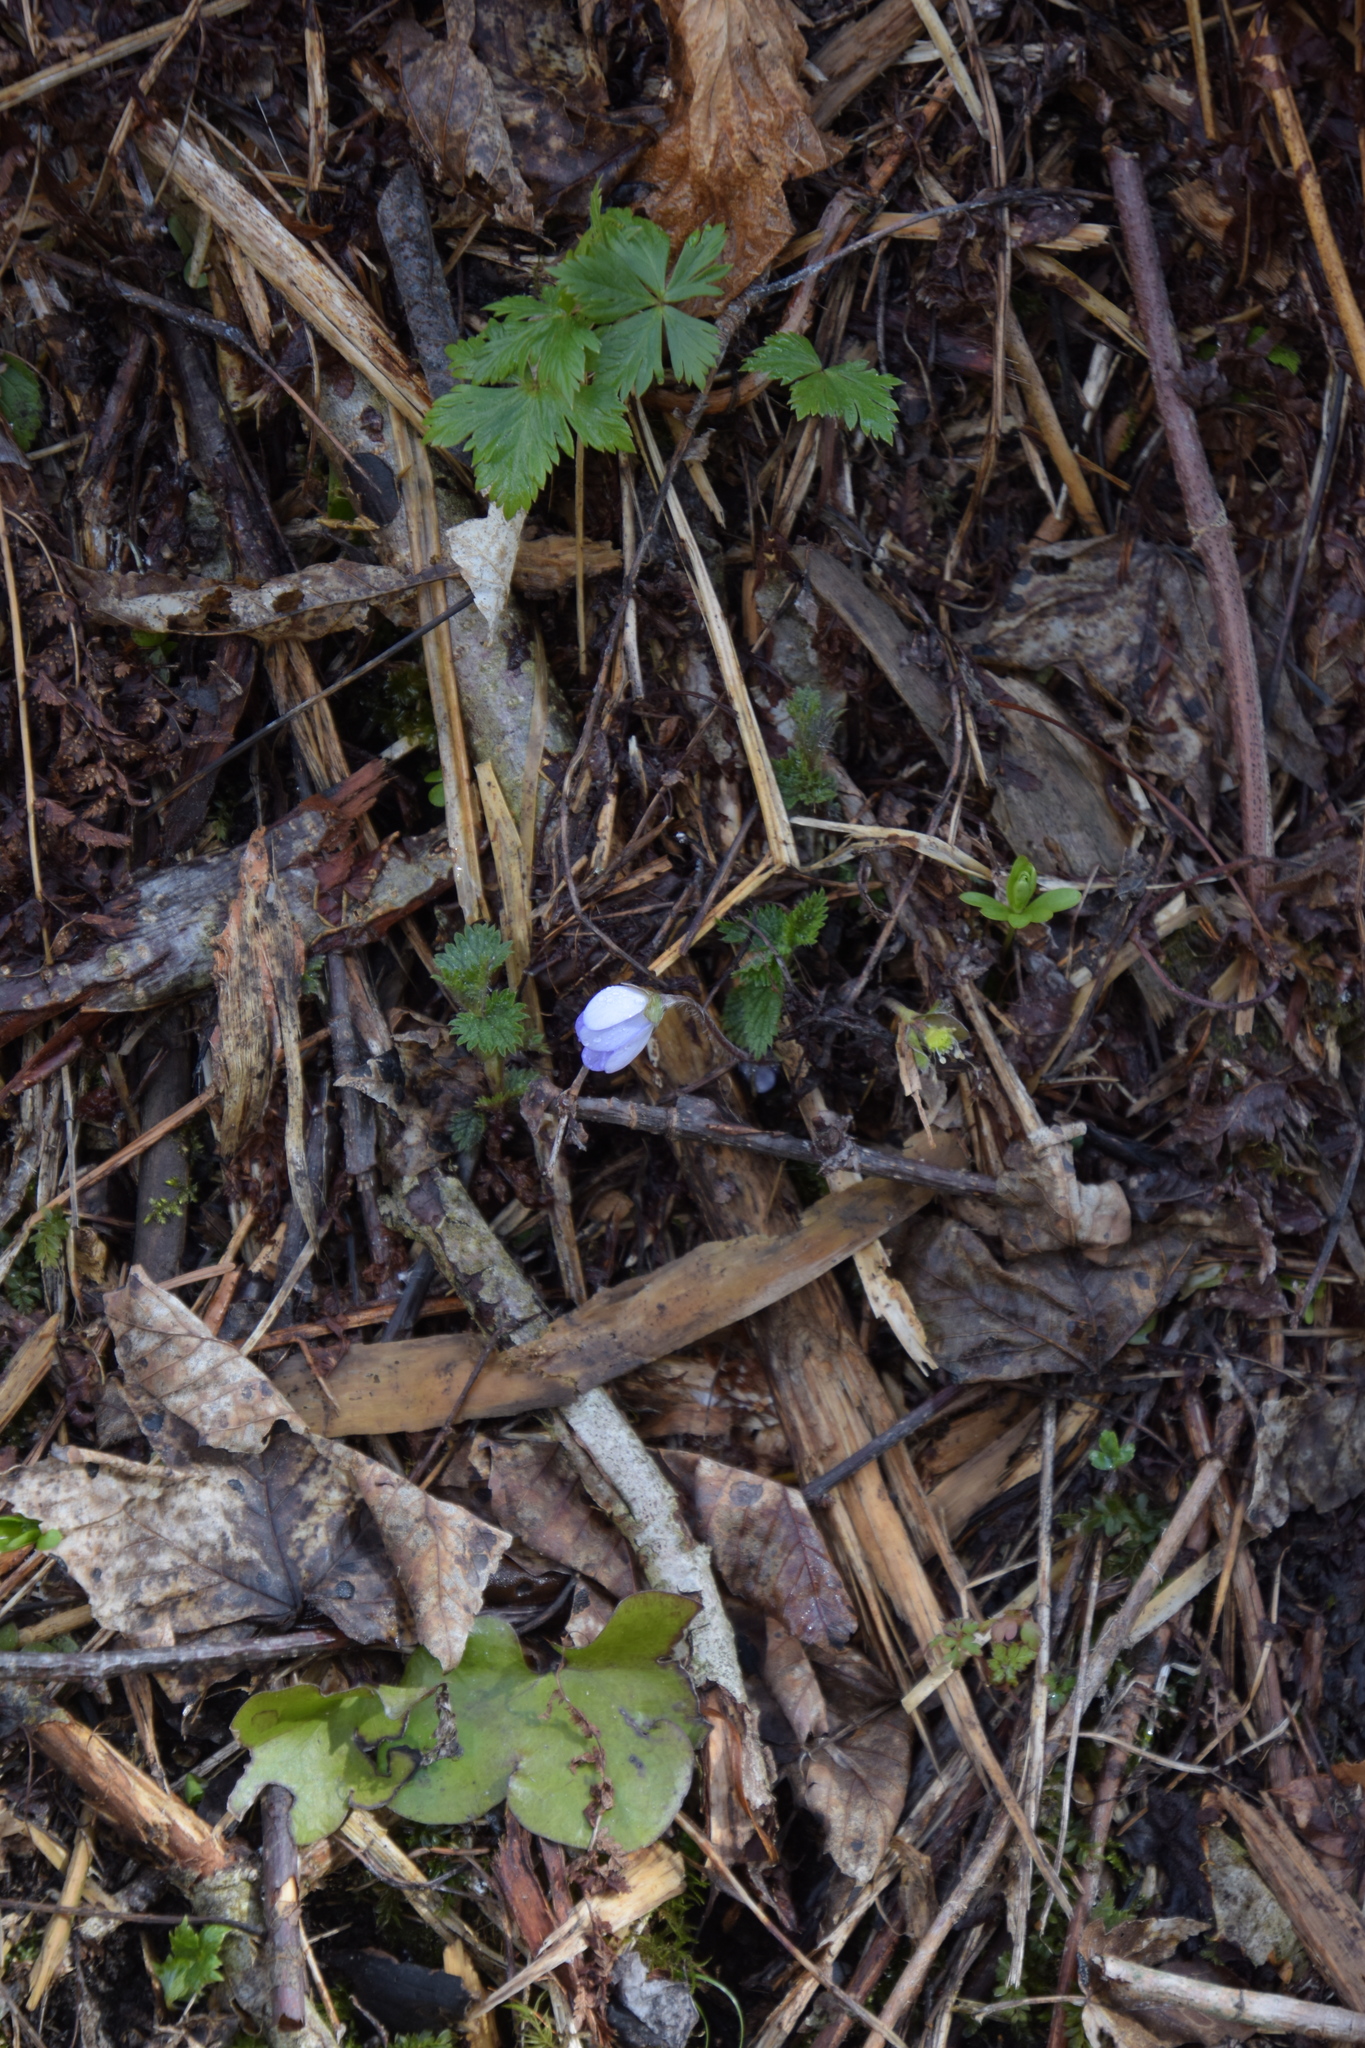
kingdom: Plantae
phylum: Tracheophyta
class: Magnoliopsida
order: Ranunculales
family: Ranunculaceae
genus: Hepatica
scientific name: Hepatica nobilis
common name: Liverleaf
